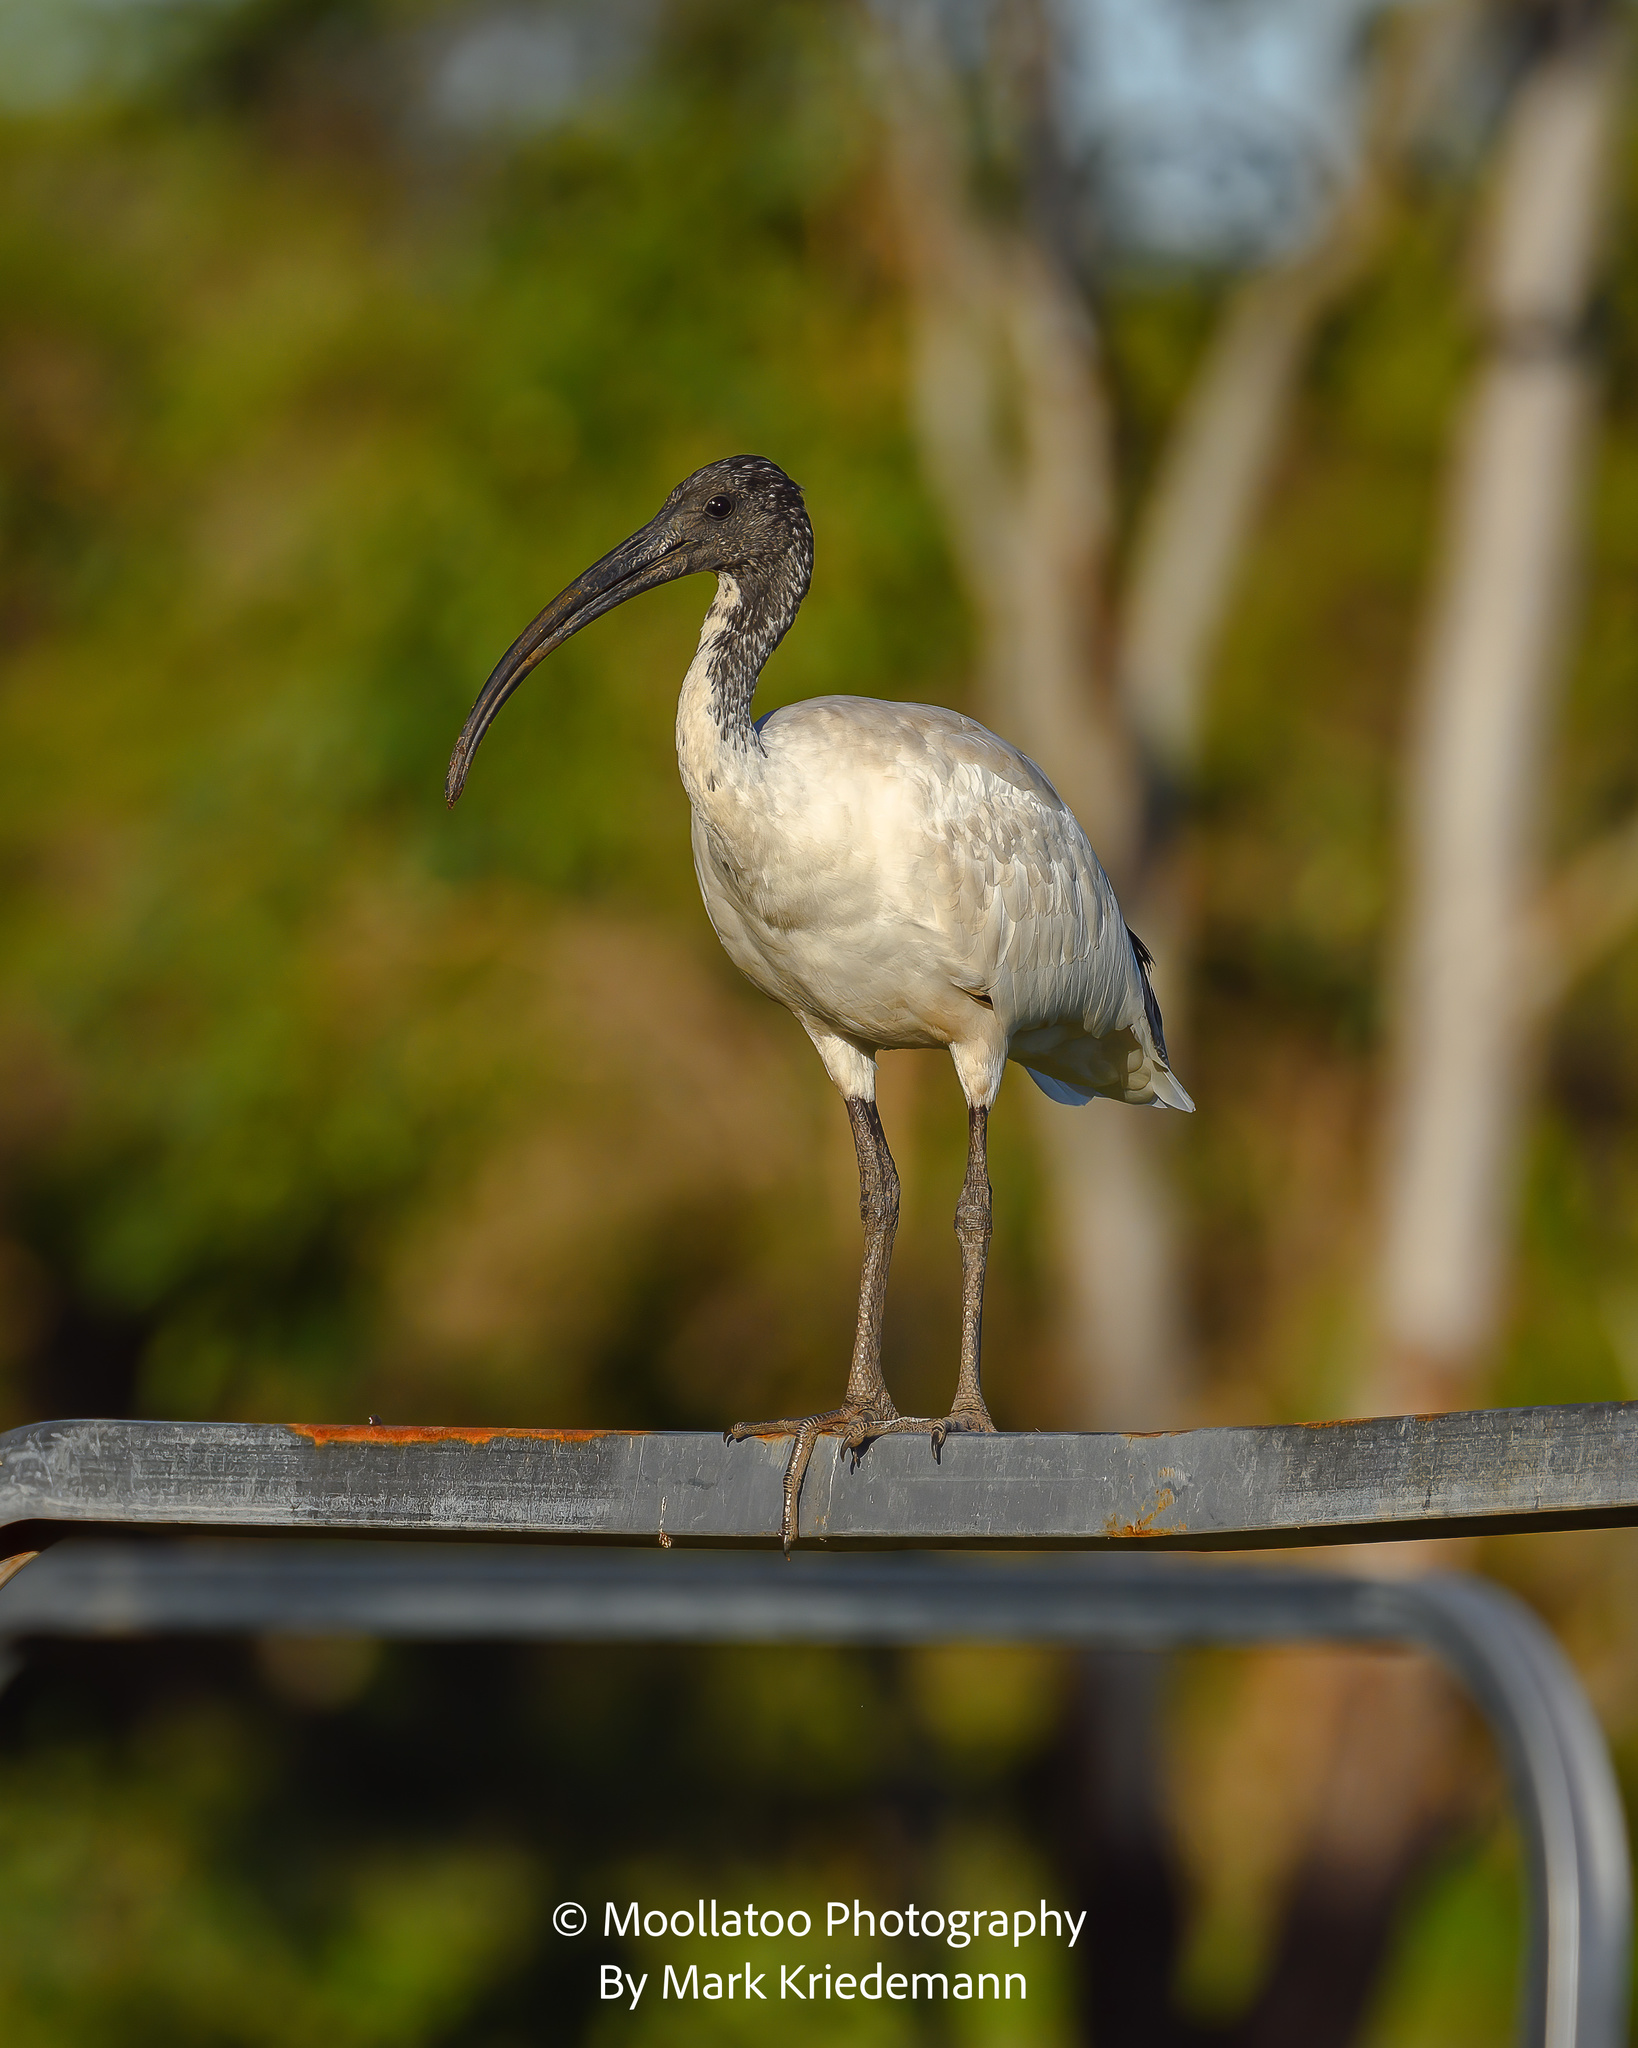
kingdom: Animalia
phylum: Chordata
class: Aves
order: Pelecaniformes
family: Threskiornithidae
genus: Threskiornis
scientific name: Threskiornis molucca
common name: Australian white ibis
